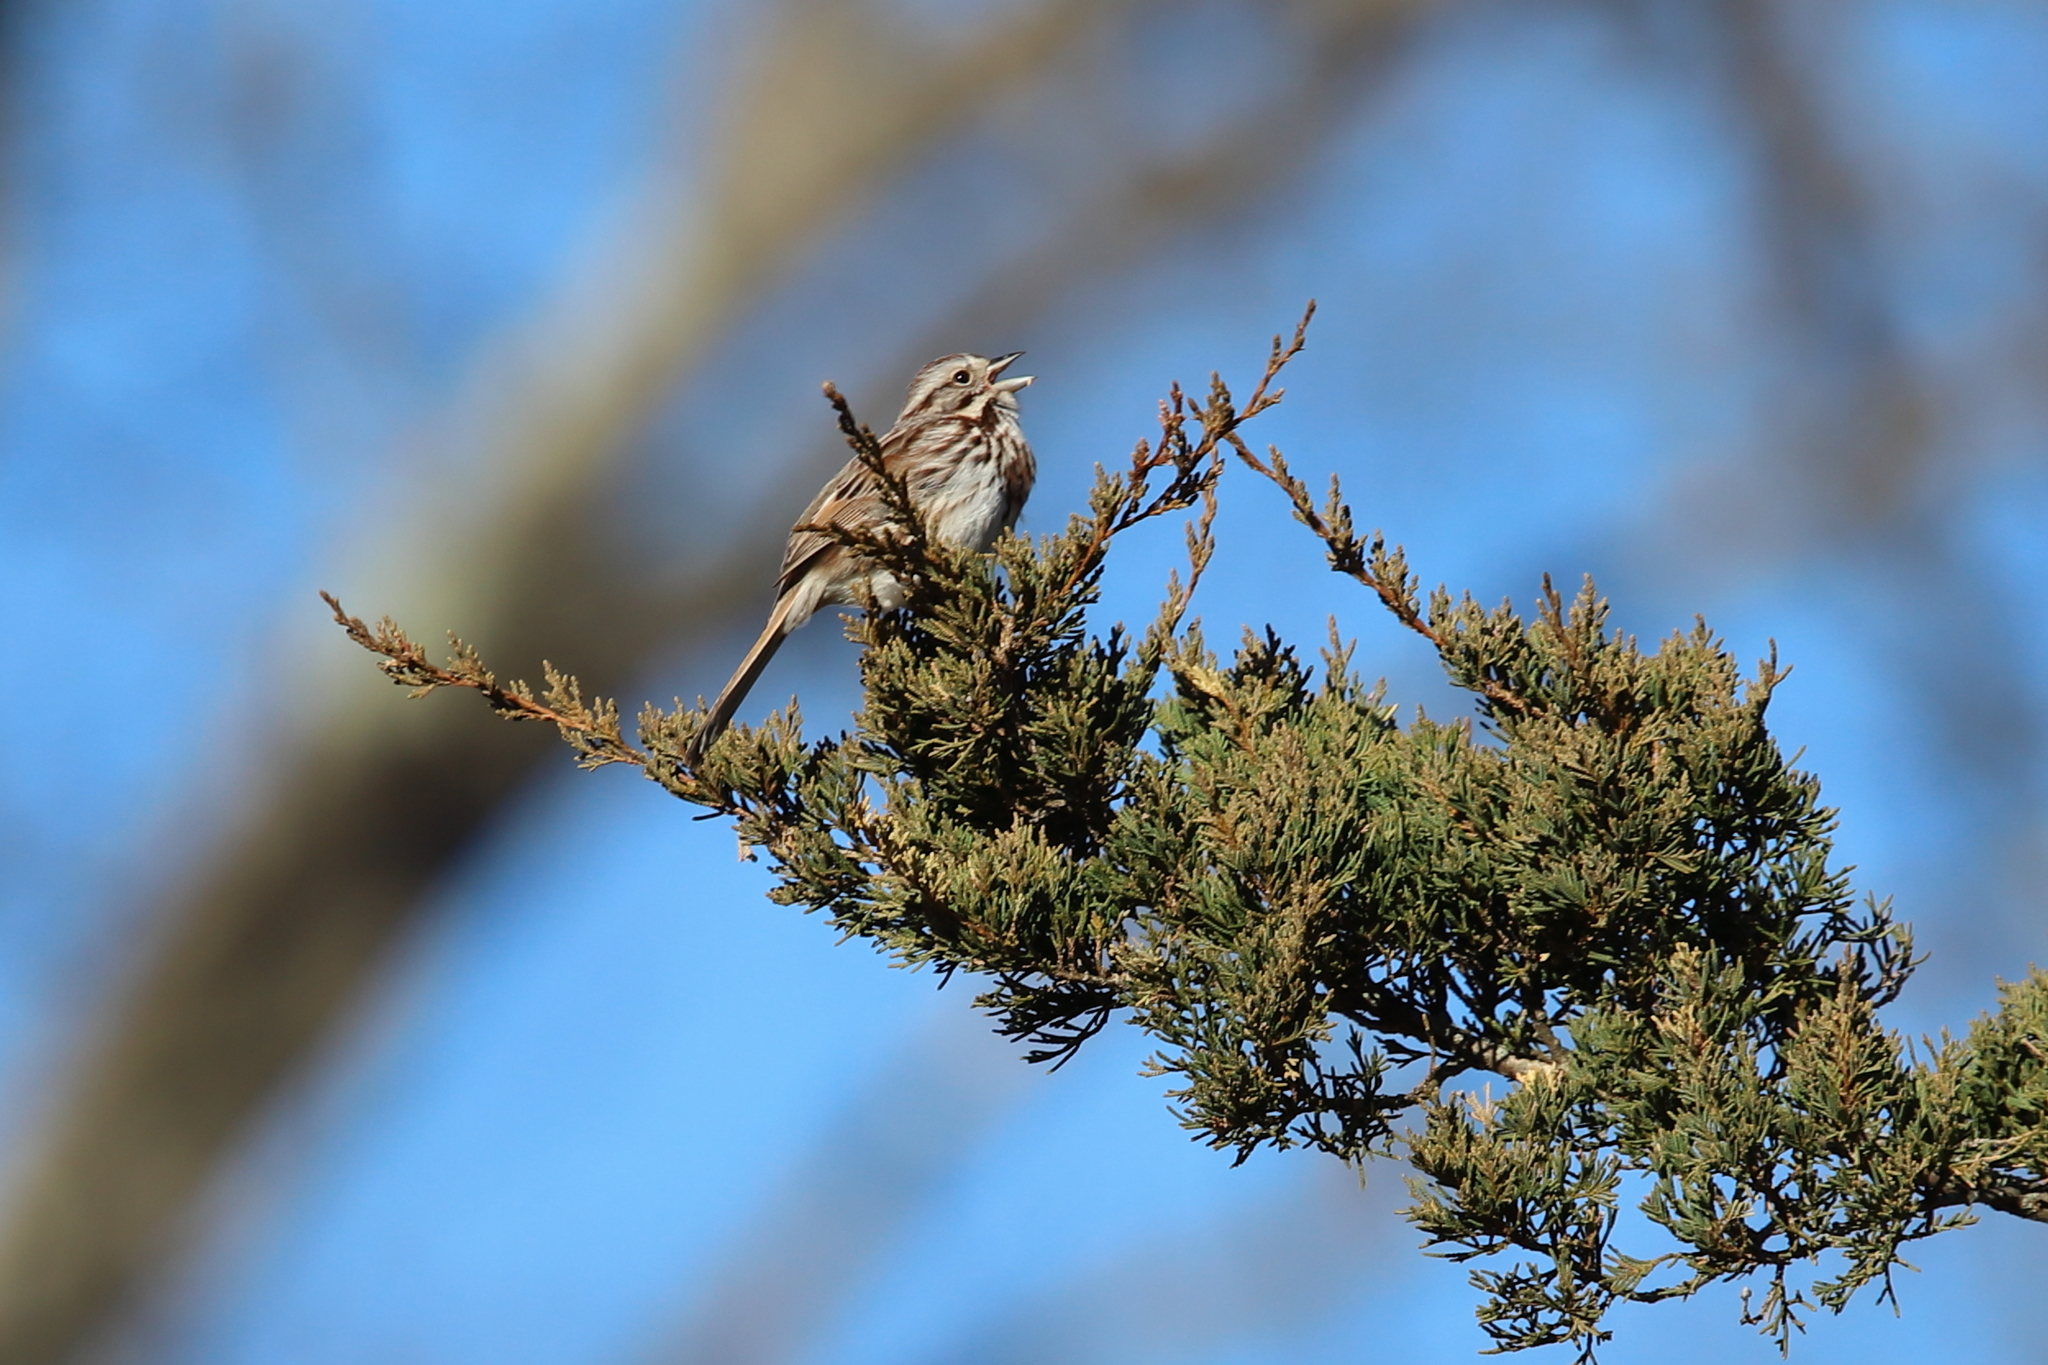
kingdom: Animalia
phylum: Chordata
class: Aves
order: Passeriformes
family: Passerellidae
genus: Melospiza
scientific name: Melospiza melodia
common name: Song sparrow
